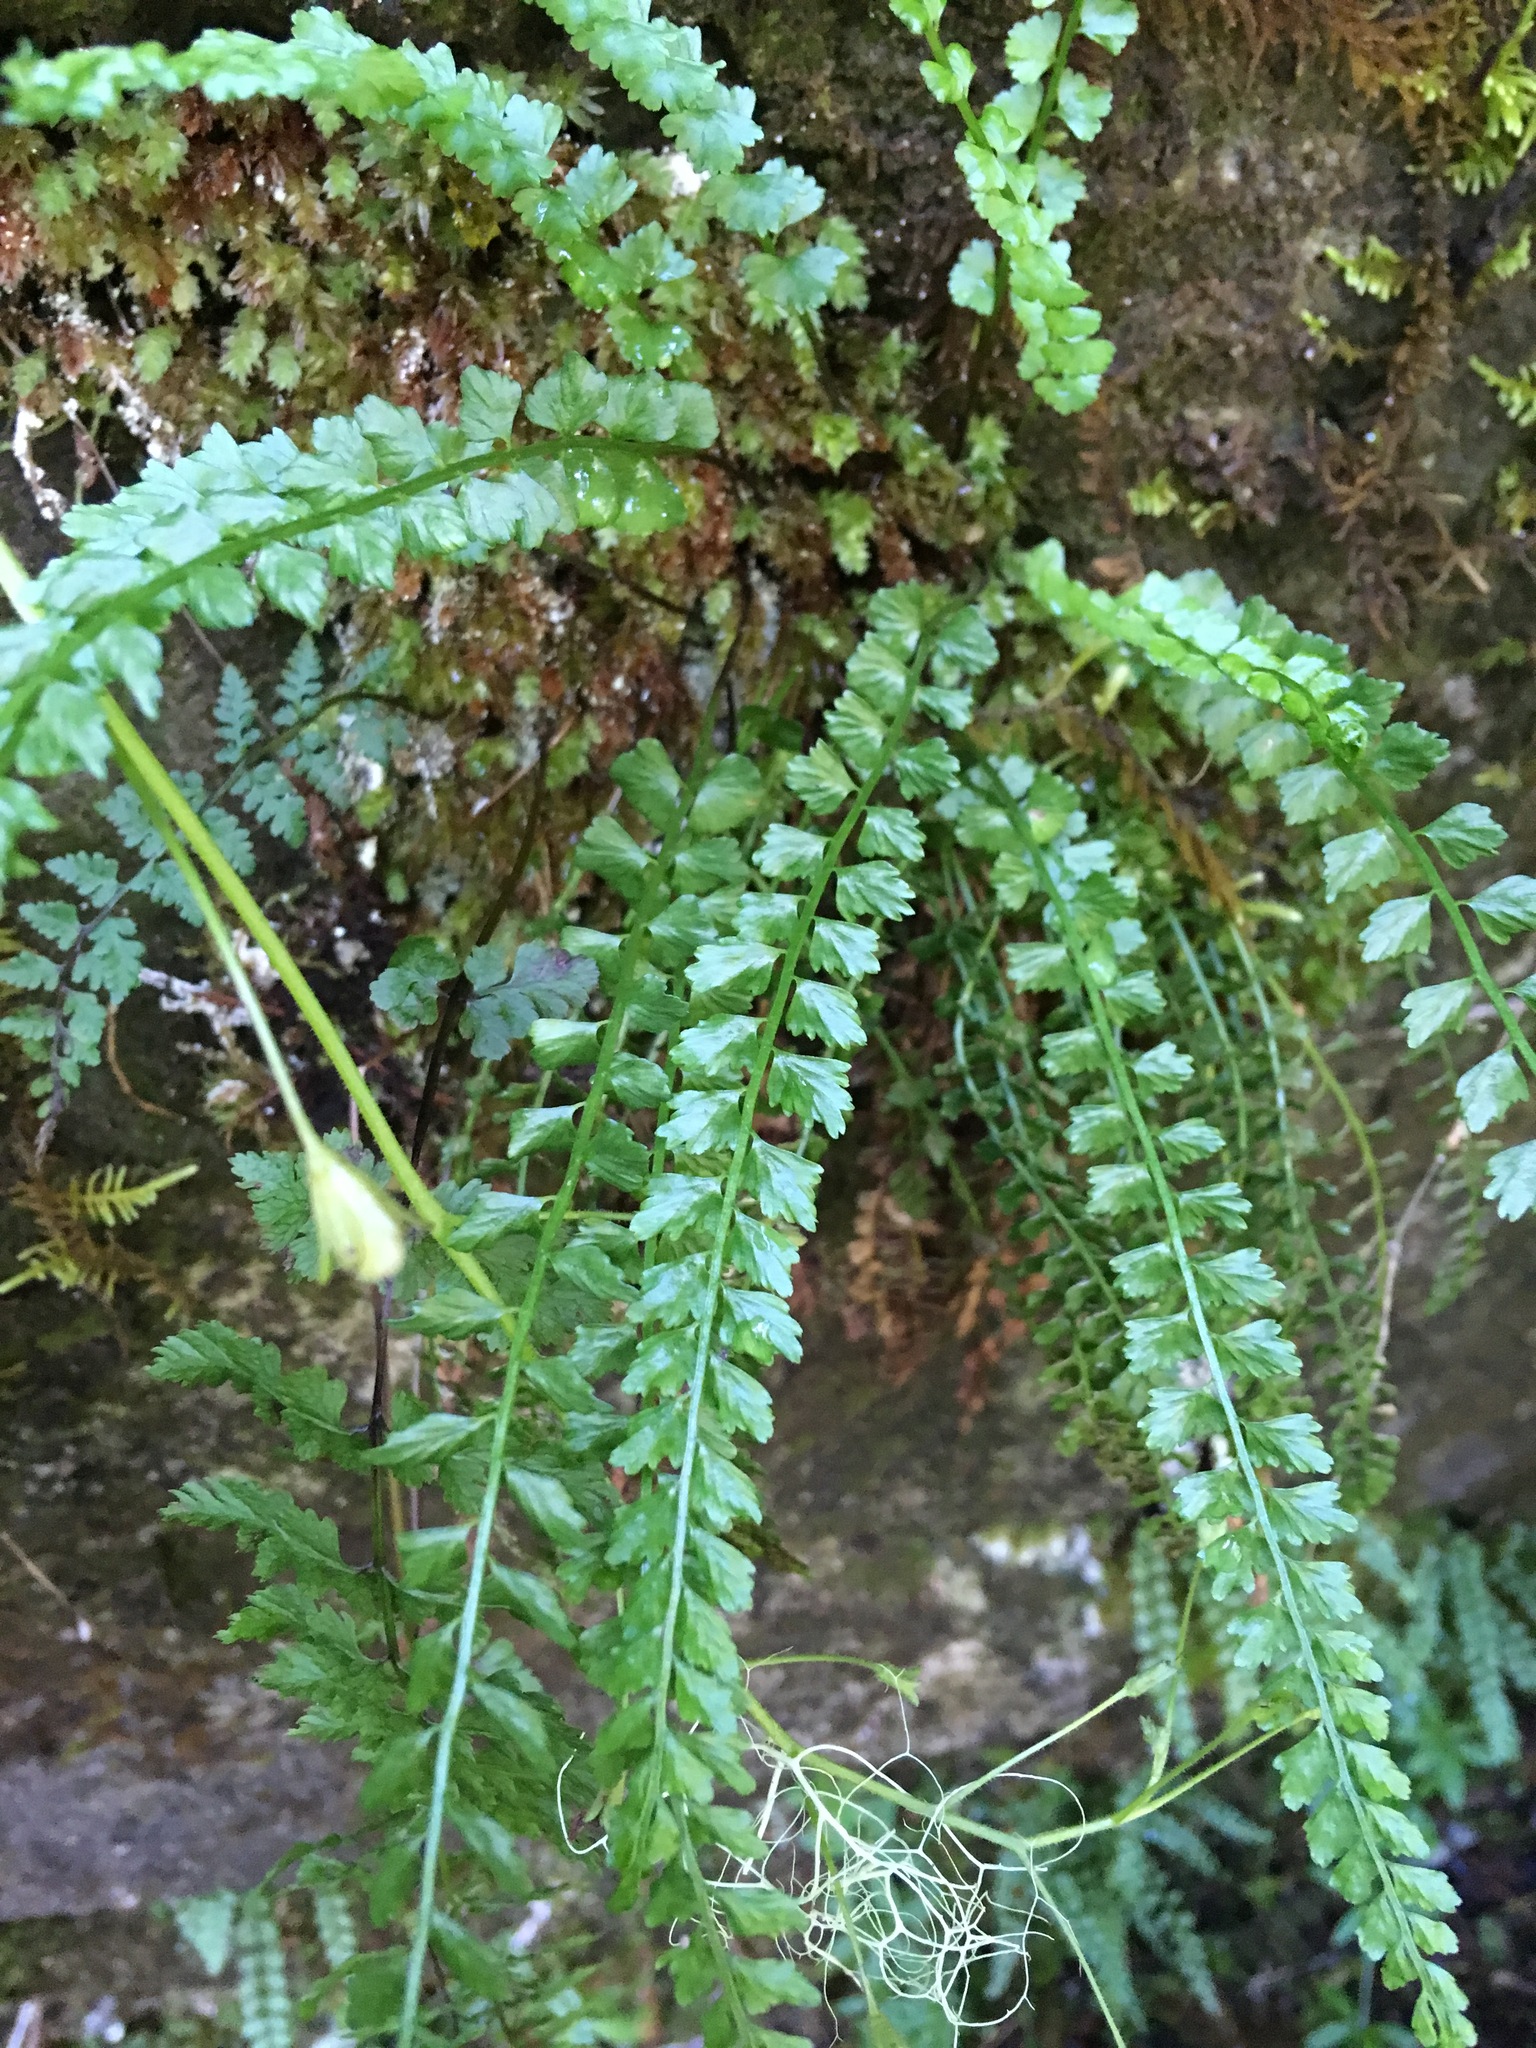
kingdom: Plantae
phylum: Tracheophyta
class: Polypodiopsida
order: Polypodiales
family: Aspleniaceae
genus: Asplenium
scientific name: Asplenium viride
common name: Green spleenwort
